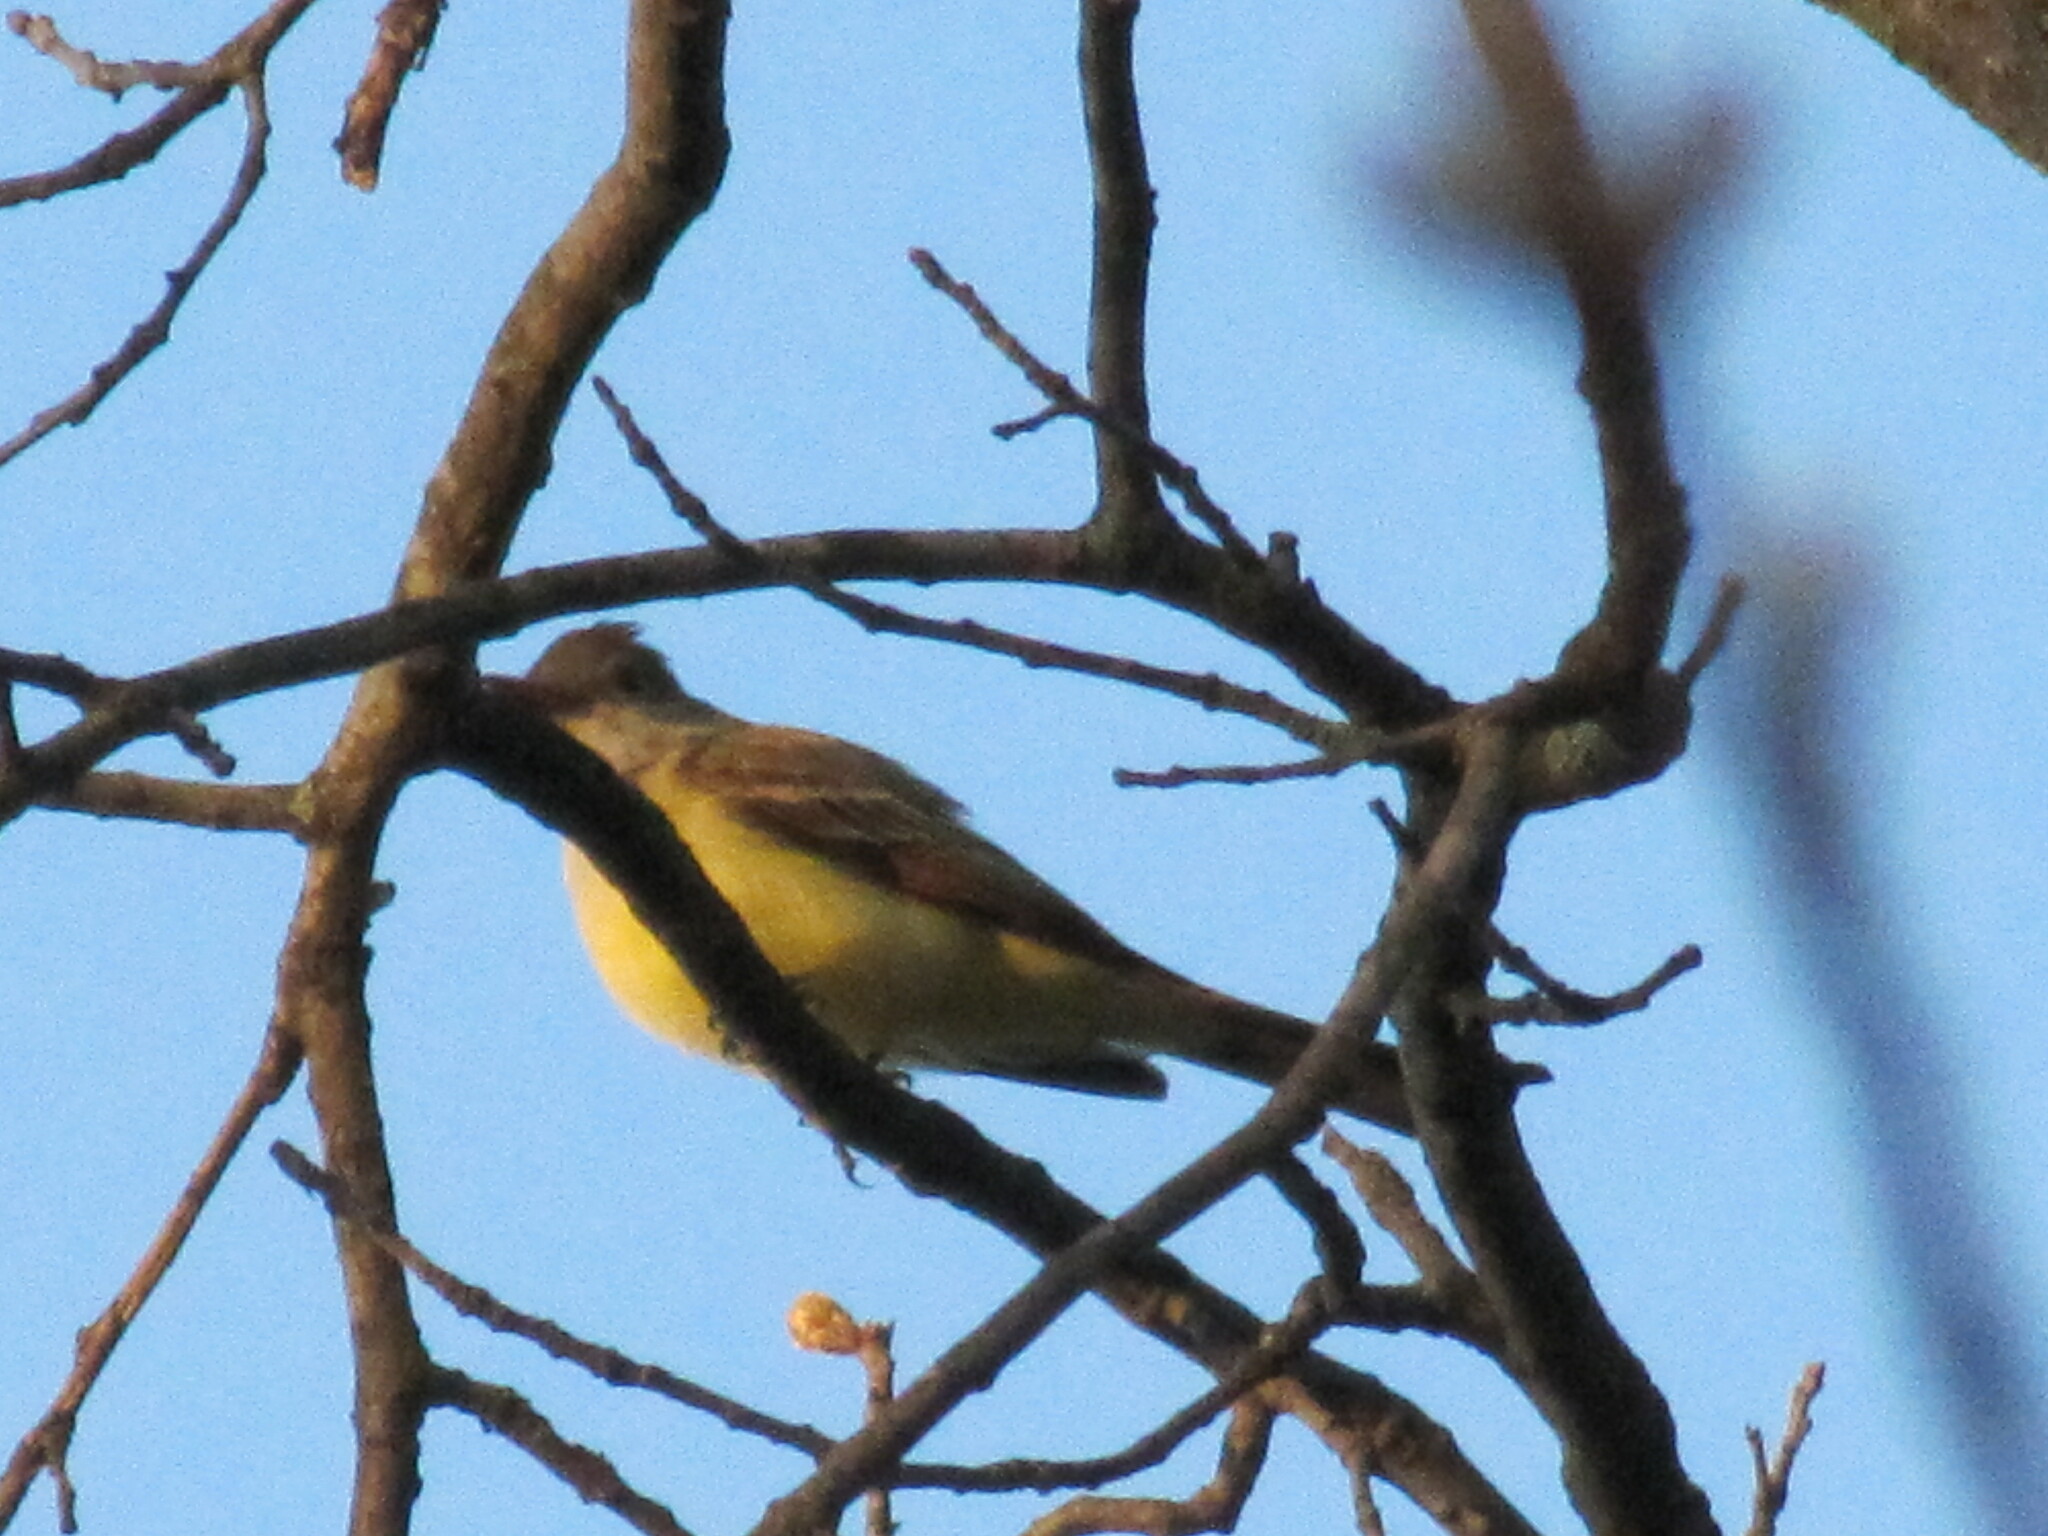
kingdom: Animalia
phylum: Chordata
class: Aves
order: Passeriformes
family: Tyrannidae
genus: Myiarchus
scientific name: Myiarchus crinitus
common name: Great crested flycatcher
